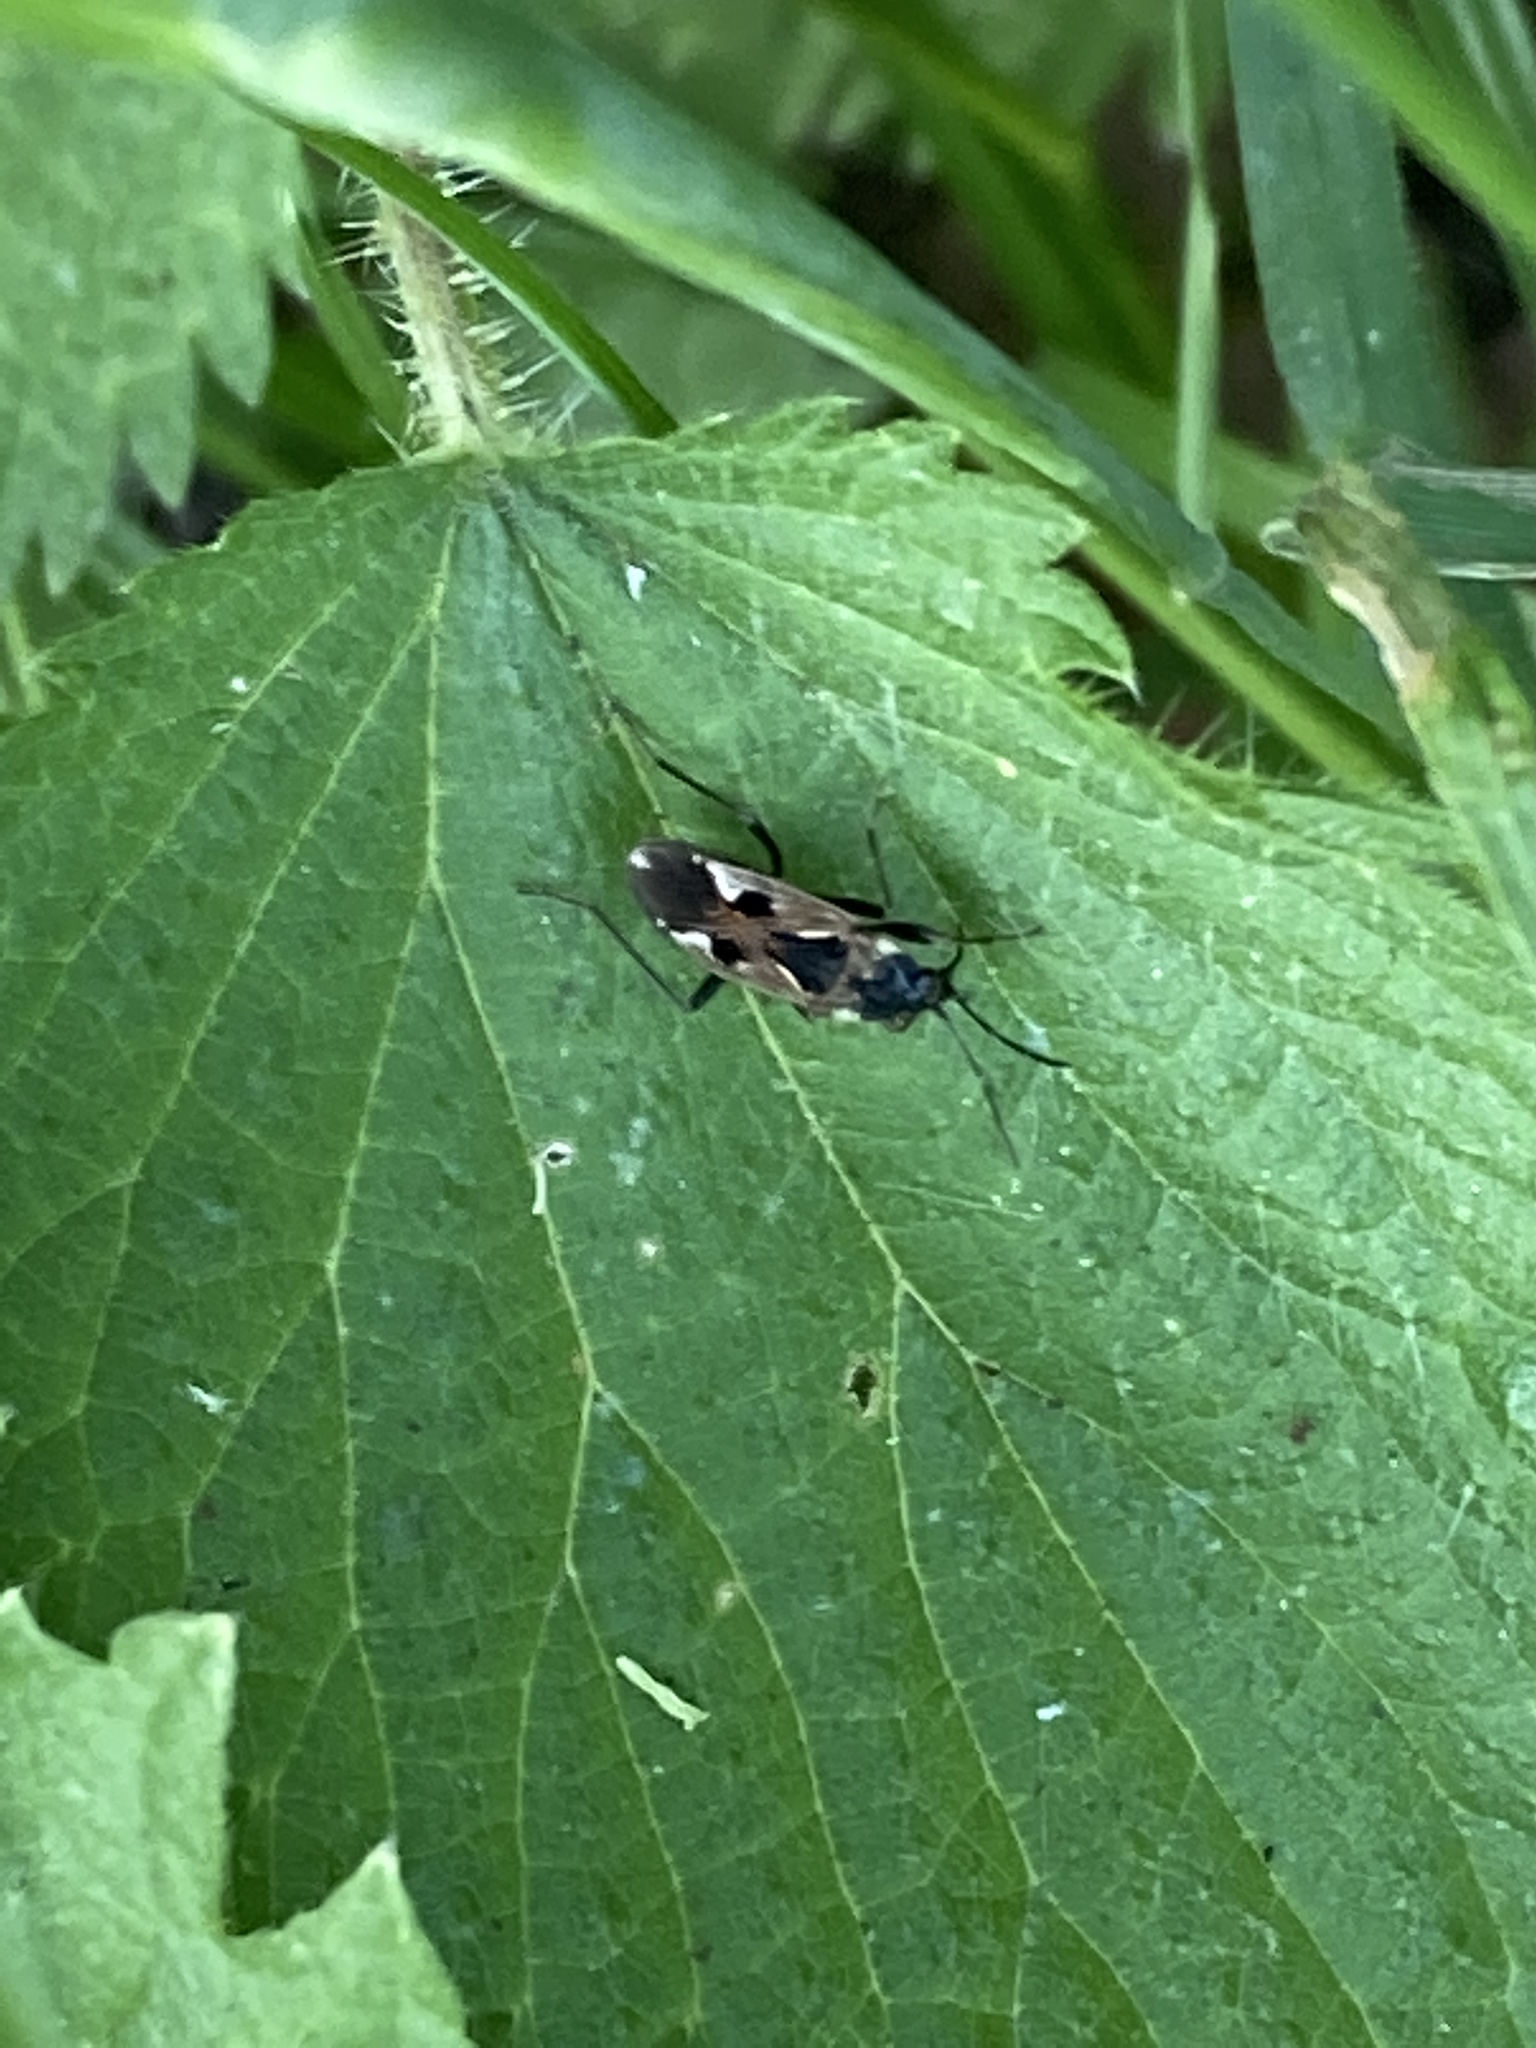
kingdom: Animalia
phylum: Arthropoda
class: Insecta
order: Hemiptera
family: Rhyparochromidae
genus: Rhyparochromus
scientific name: Rhyparochromus vulgaris
